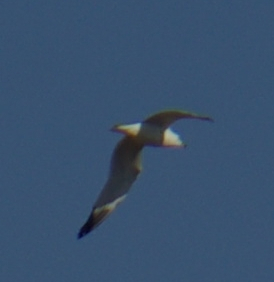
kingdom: Animalia
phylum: Chordata
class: Aves
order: Charadriiformes
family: Laridae
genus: Larus
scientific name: Larus delawarensis
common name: Ring-billed gull
